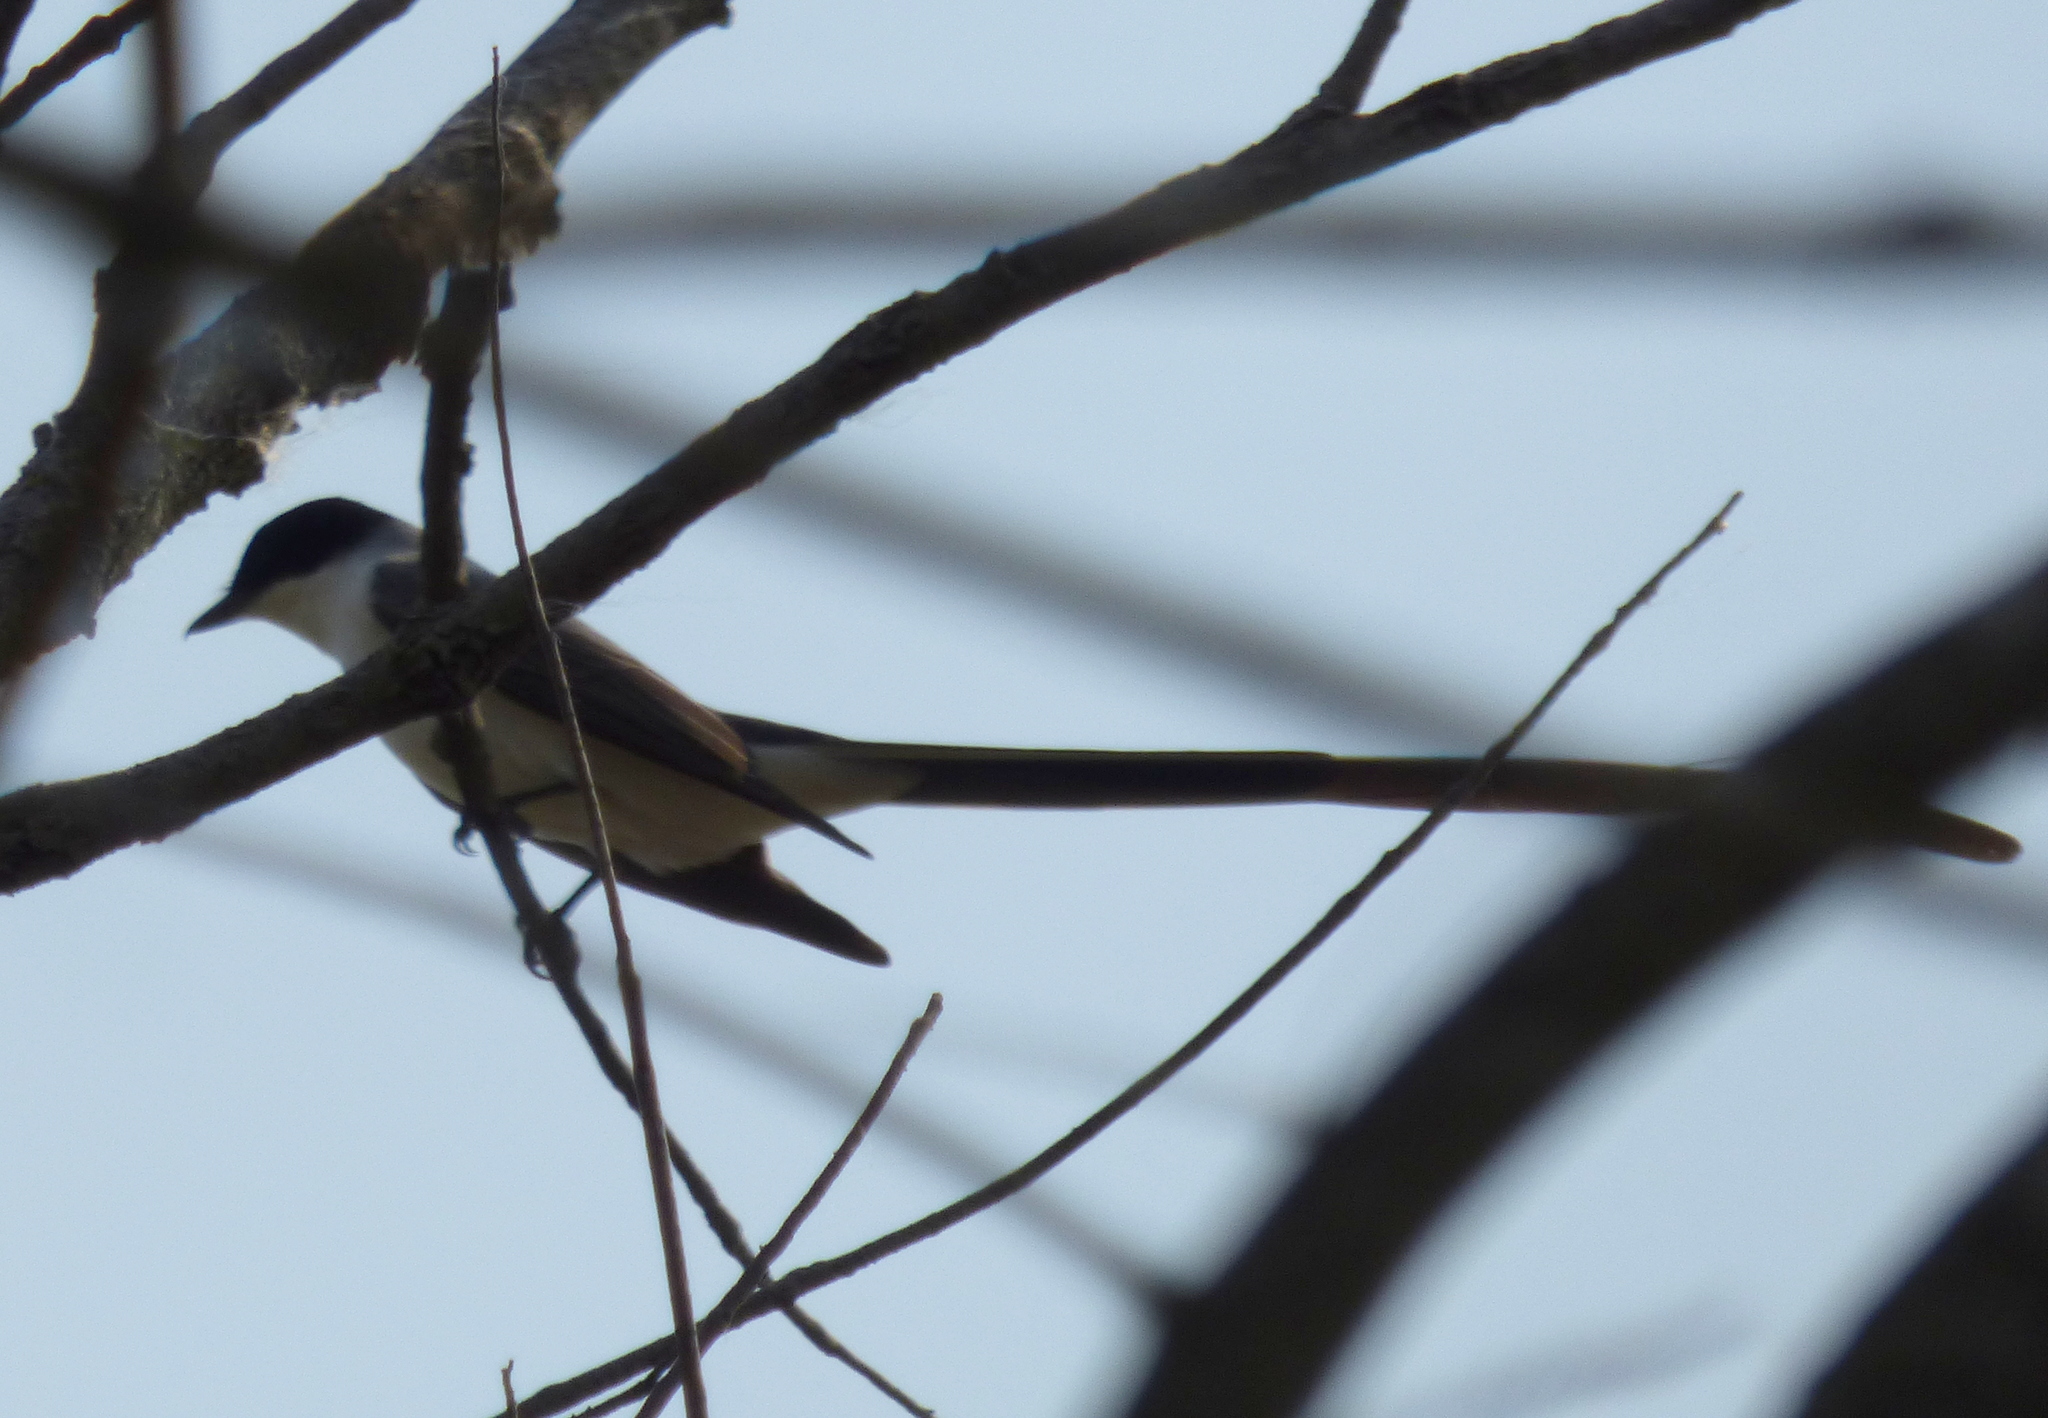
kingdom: Animalia
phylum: Chordata
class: Aves
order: Passeriformes
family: Tyrannidae
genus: Tyrannus
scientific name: Tyrannus savana
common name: Fork-tailed flycatcher
